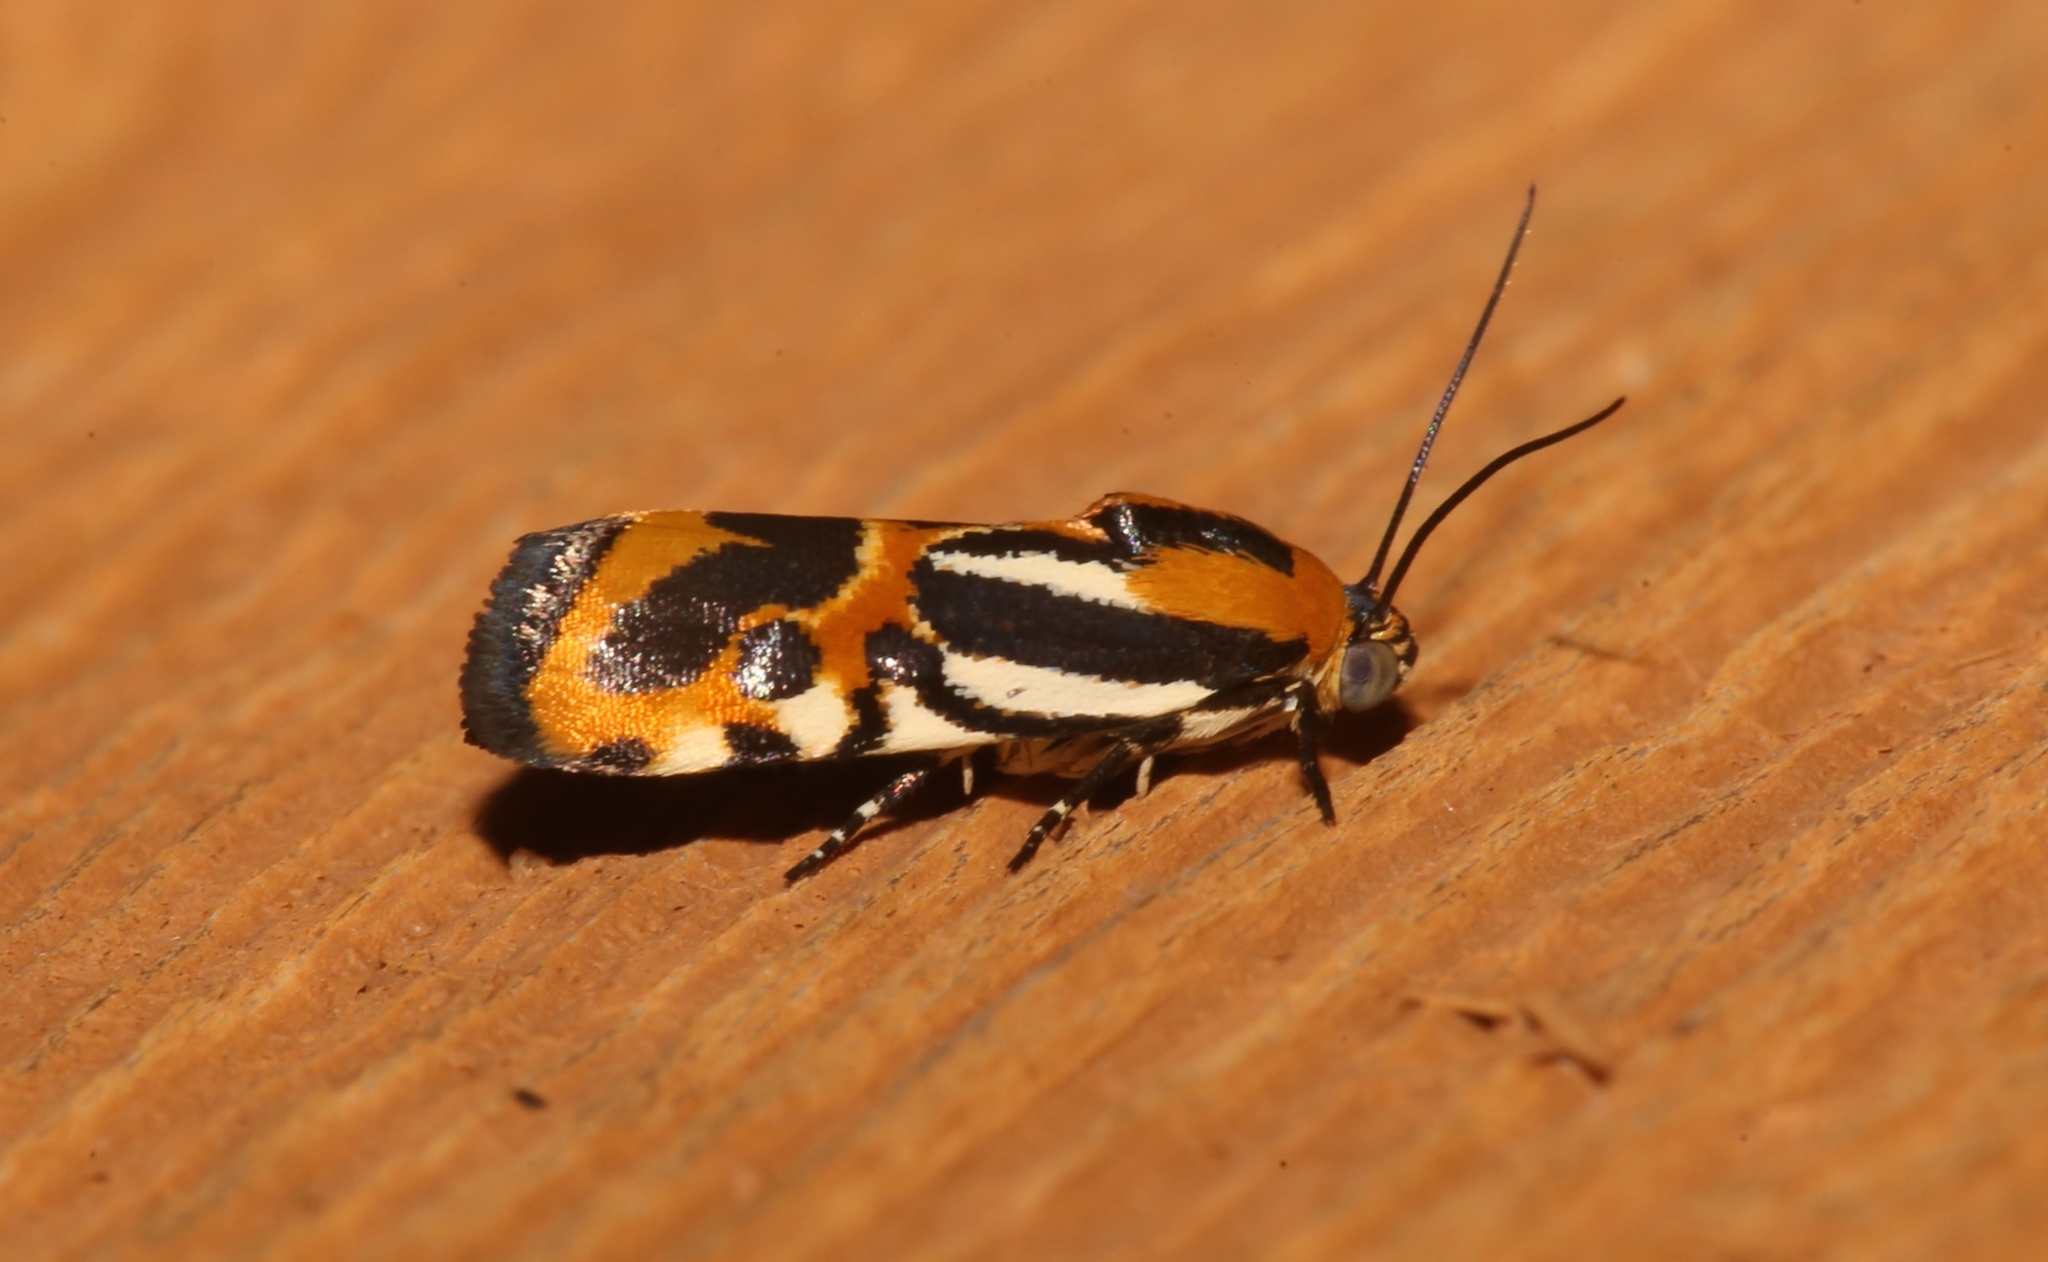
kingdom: Animalia
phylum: Arthropoda
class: Insecta
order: Lepidoptera
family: Noctuidae
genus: Acontia
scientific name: Acontia onagrus
